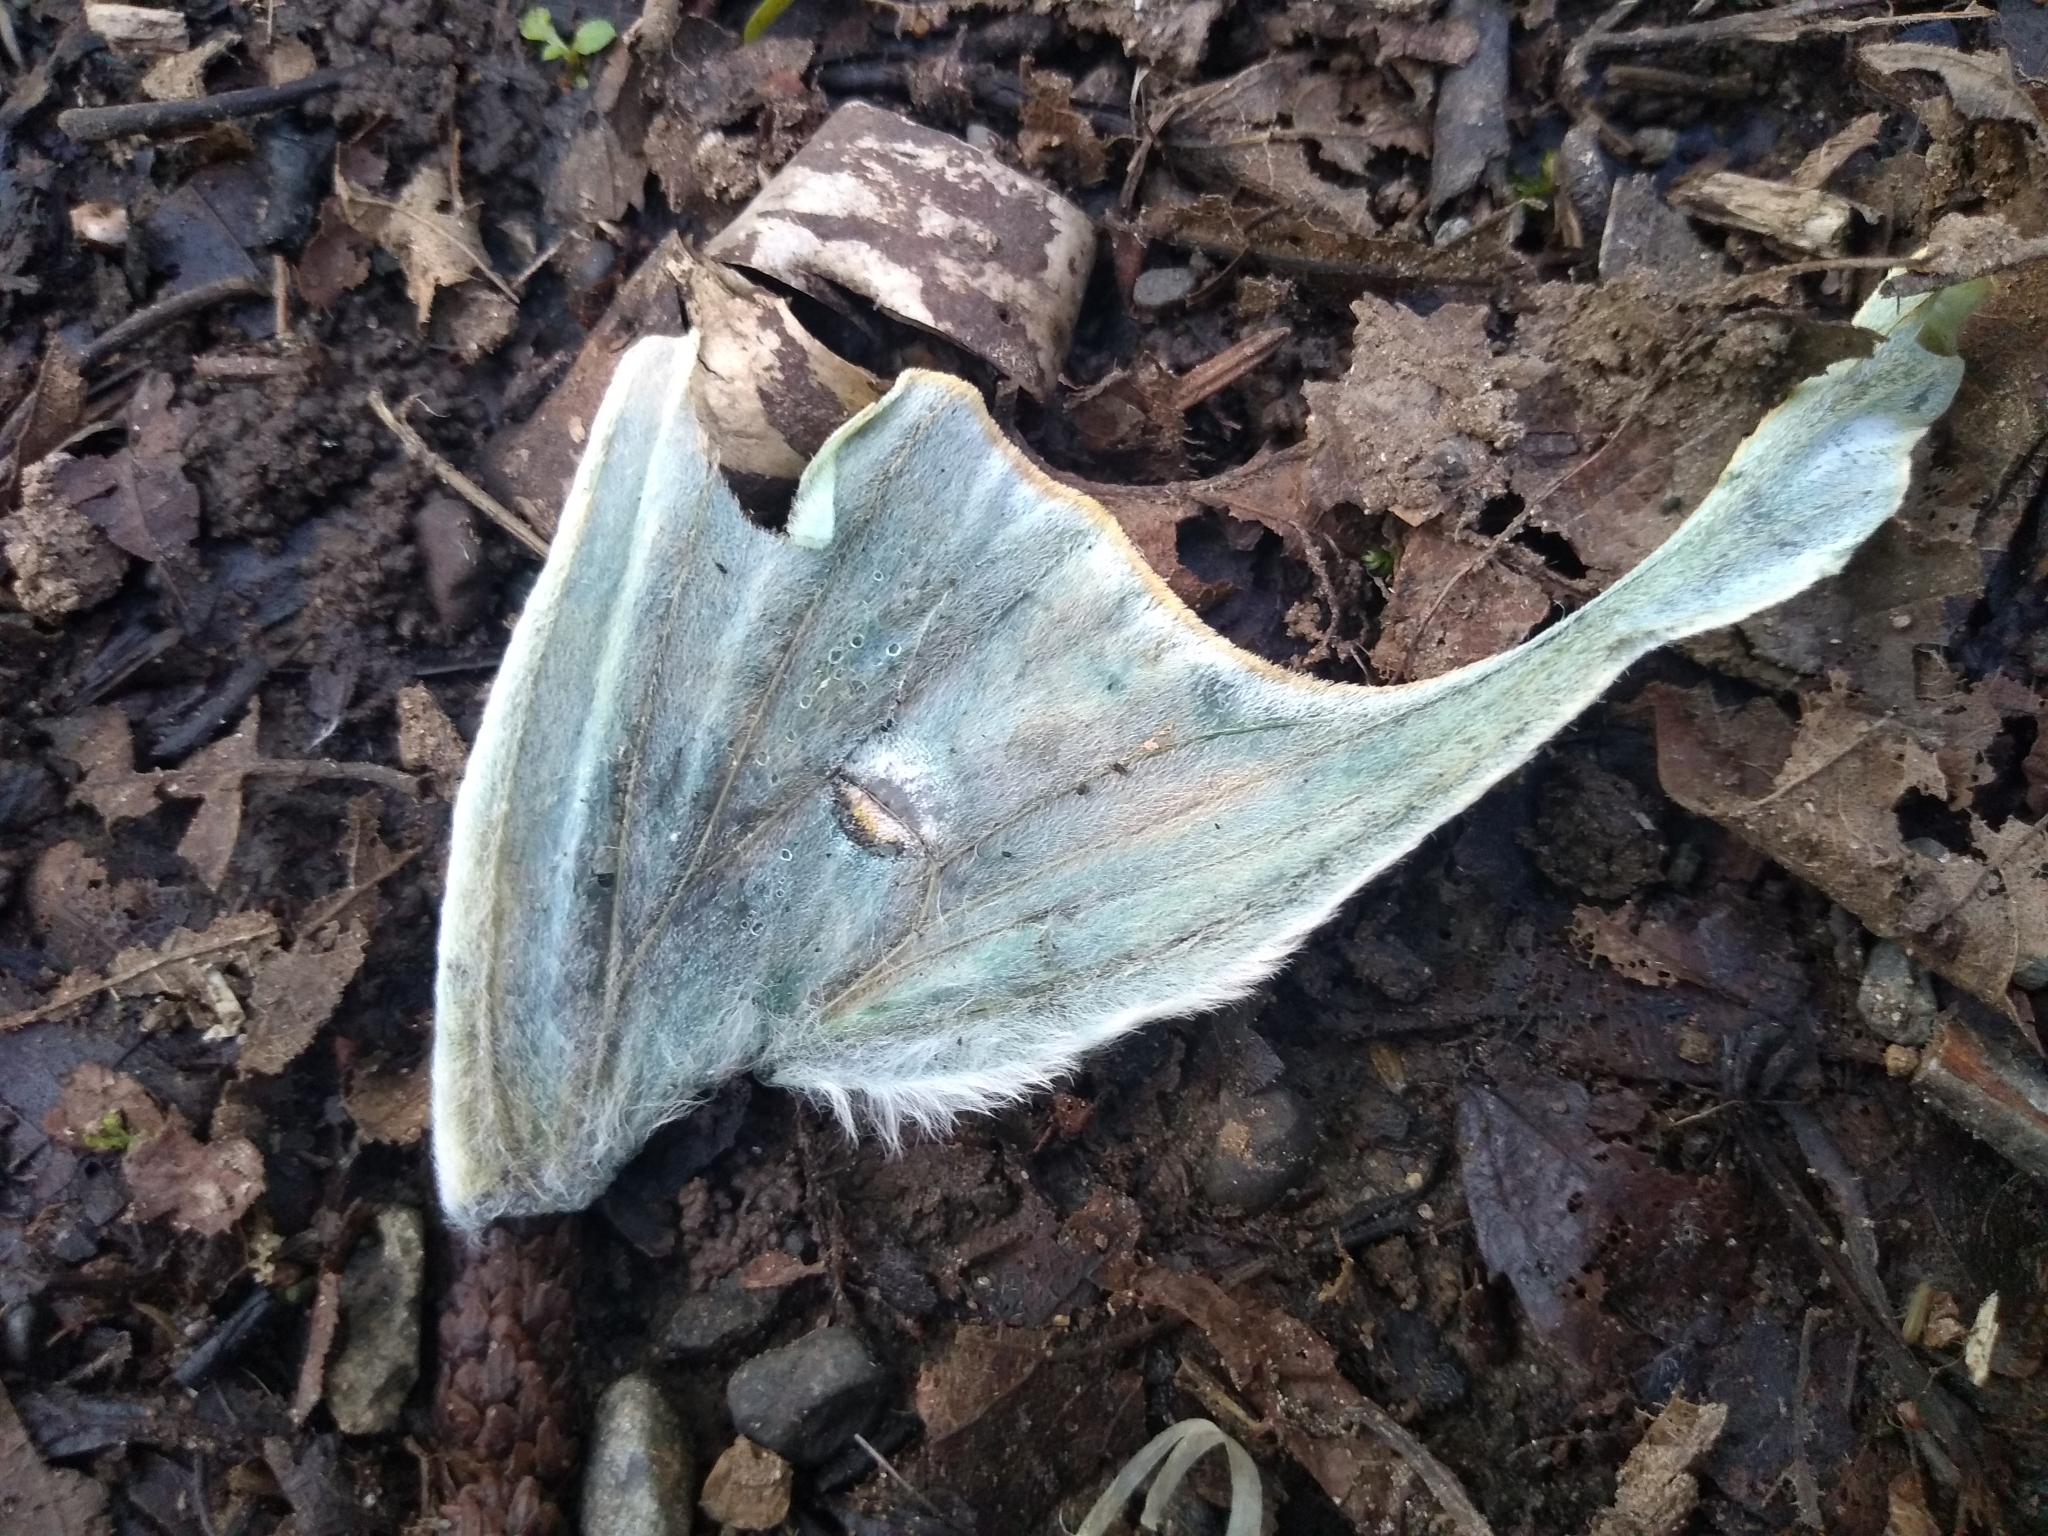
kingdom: Animalia
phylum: Arthropoda
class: Insecta
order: Lepidoptera
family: Saturniidae
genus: Actias
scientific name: Actias luna
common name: Luna moth
